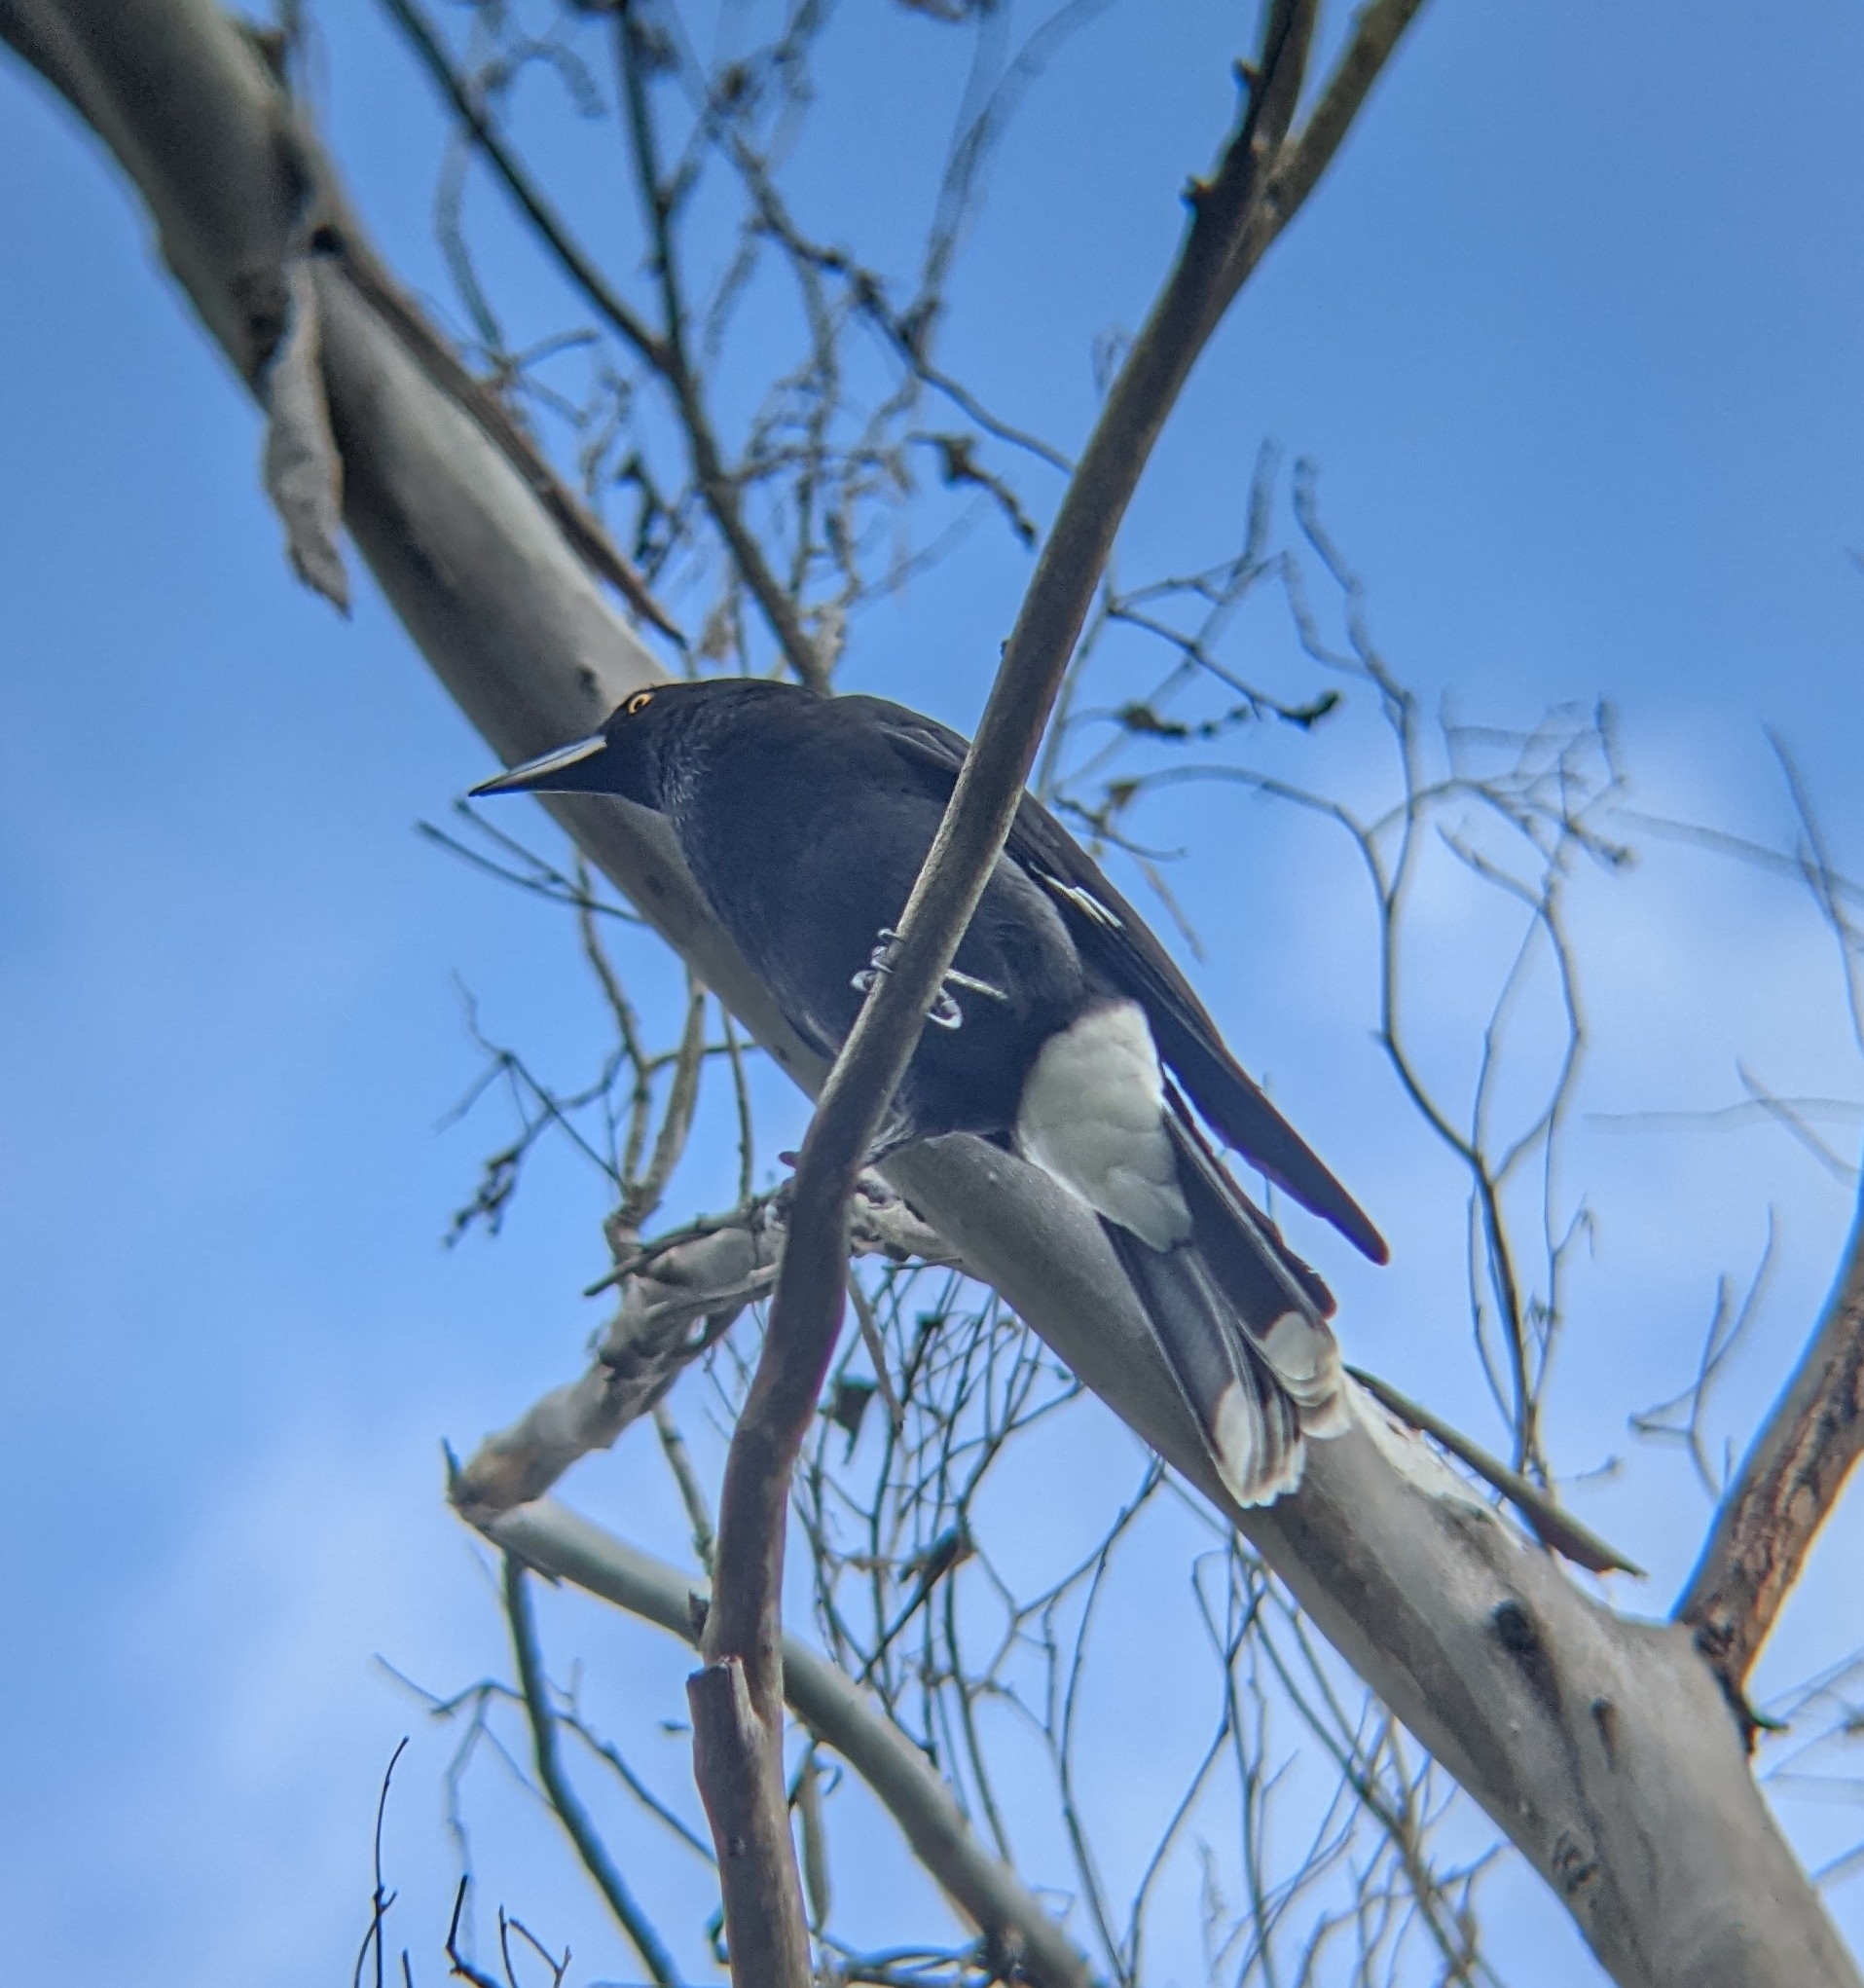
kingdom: Animalia
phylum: Chordata
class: Aves
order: Passeriformes
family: Cracticidae
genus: Strepera
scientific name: Strepera graculina
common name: Pied currawong
